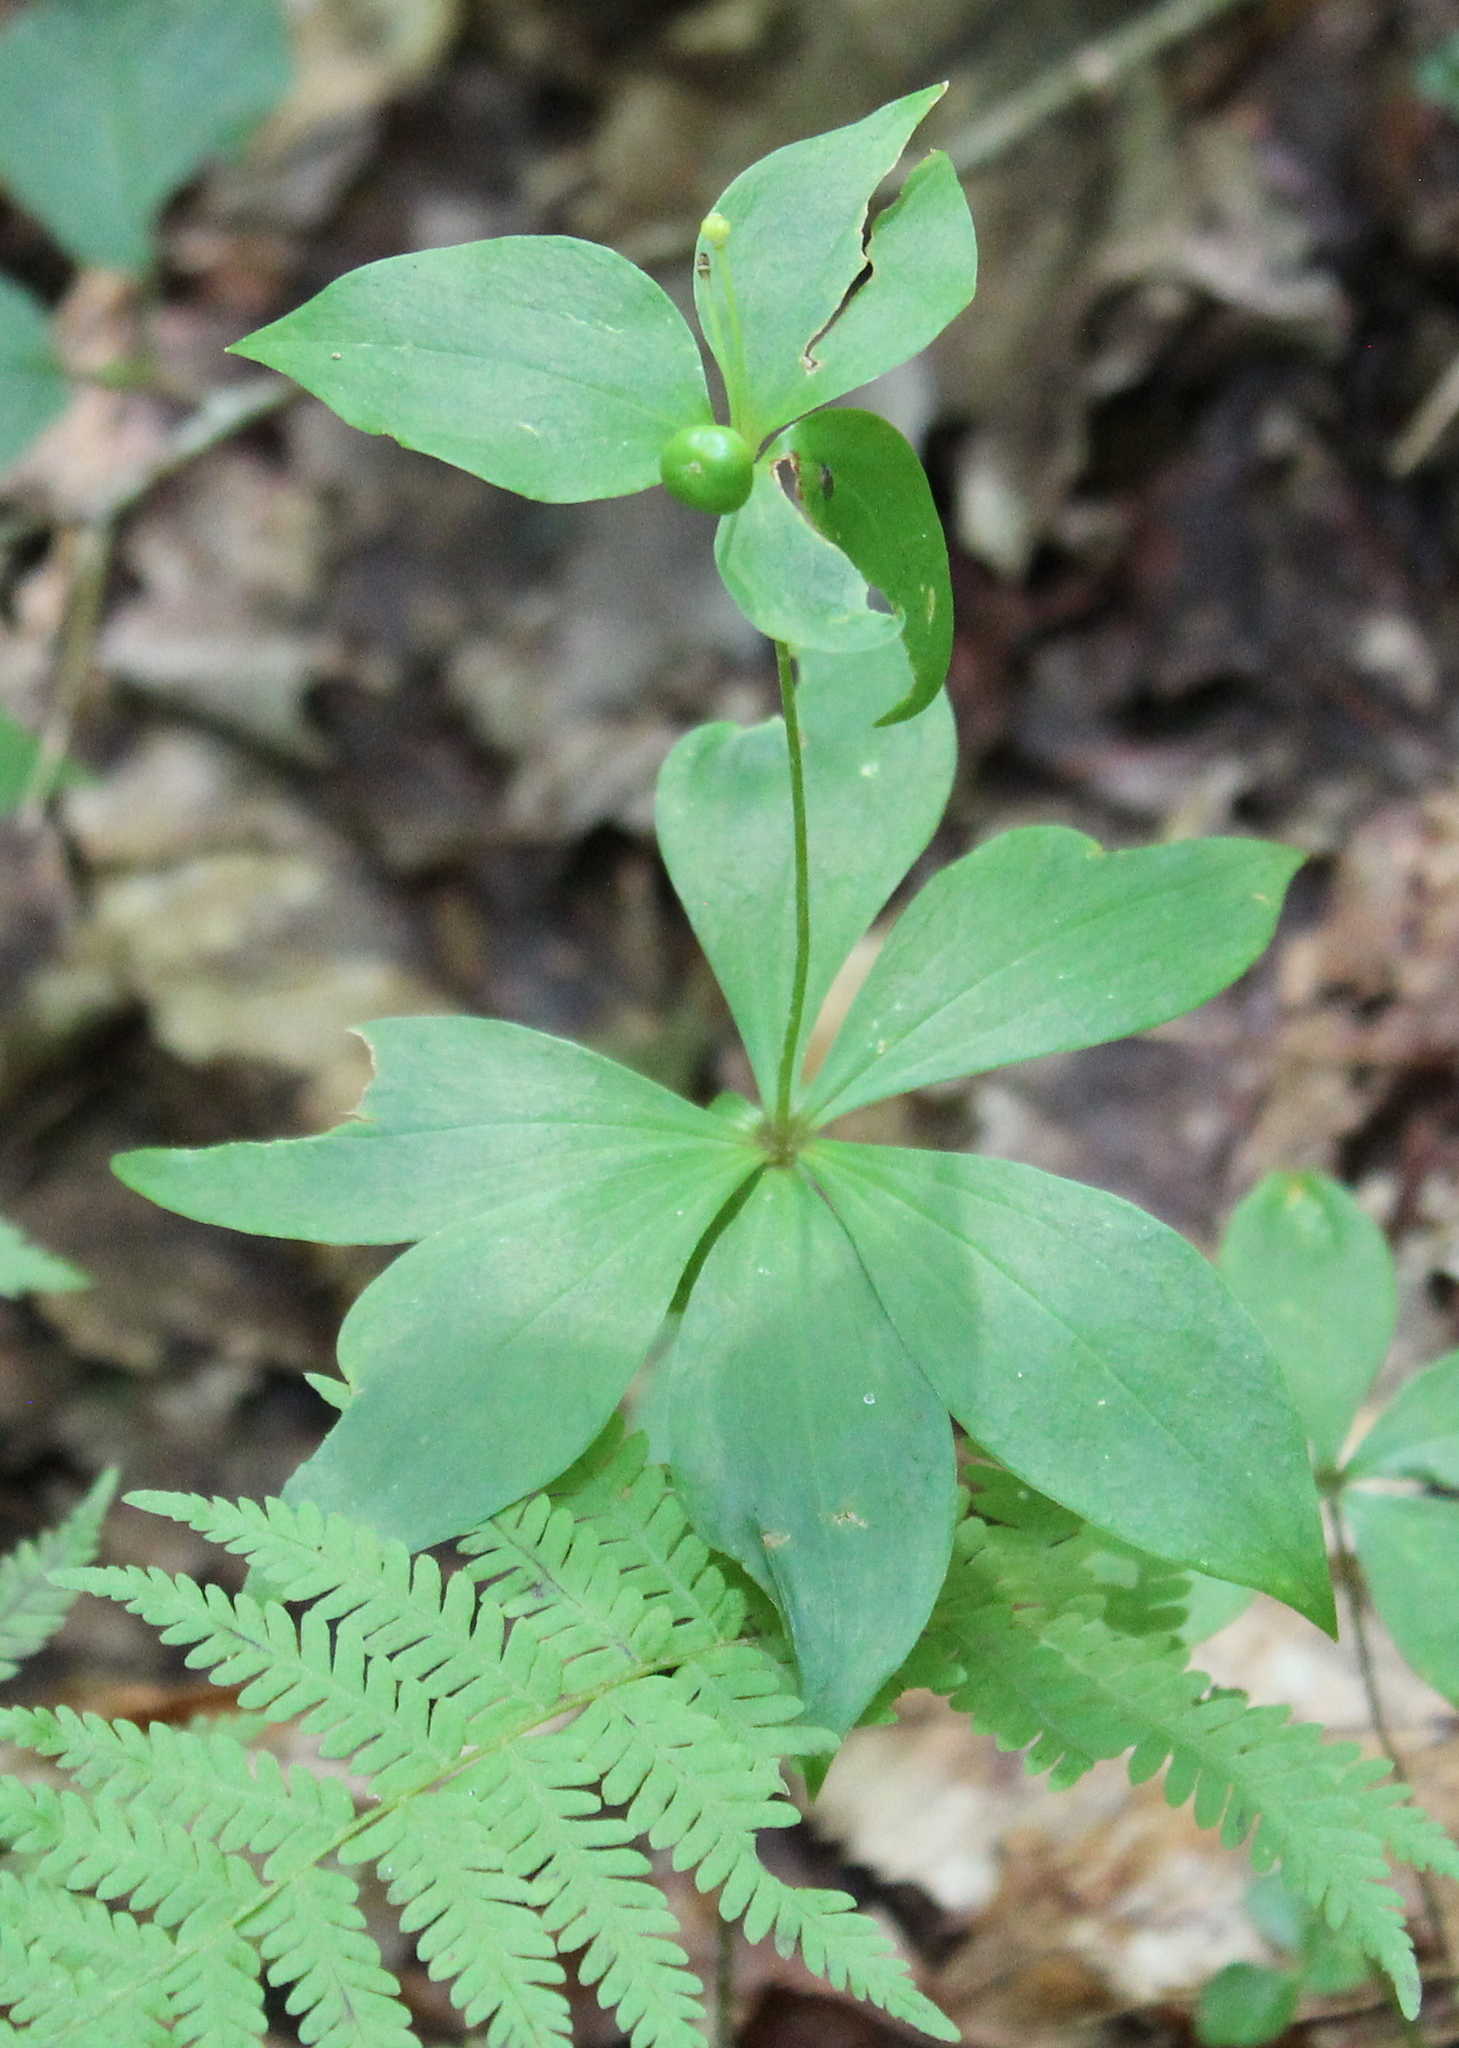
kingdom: Plantae
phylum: Tracheophyta
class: Liliopsida
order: Liliales
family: Liliaceae
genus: Medeola
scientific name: Medeola virginiana
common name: Indian cucumber-root
